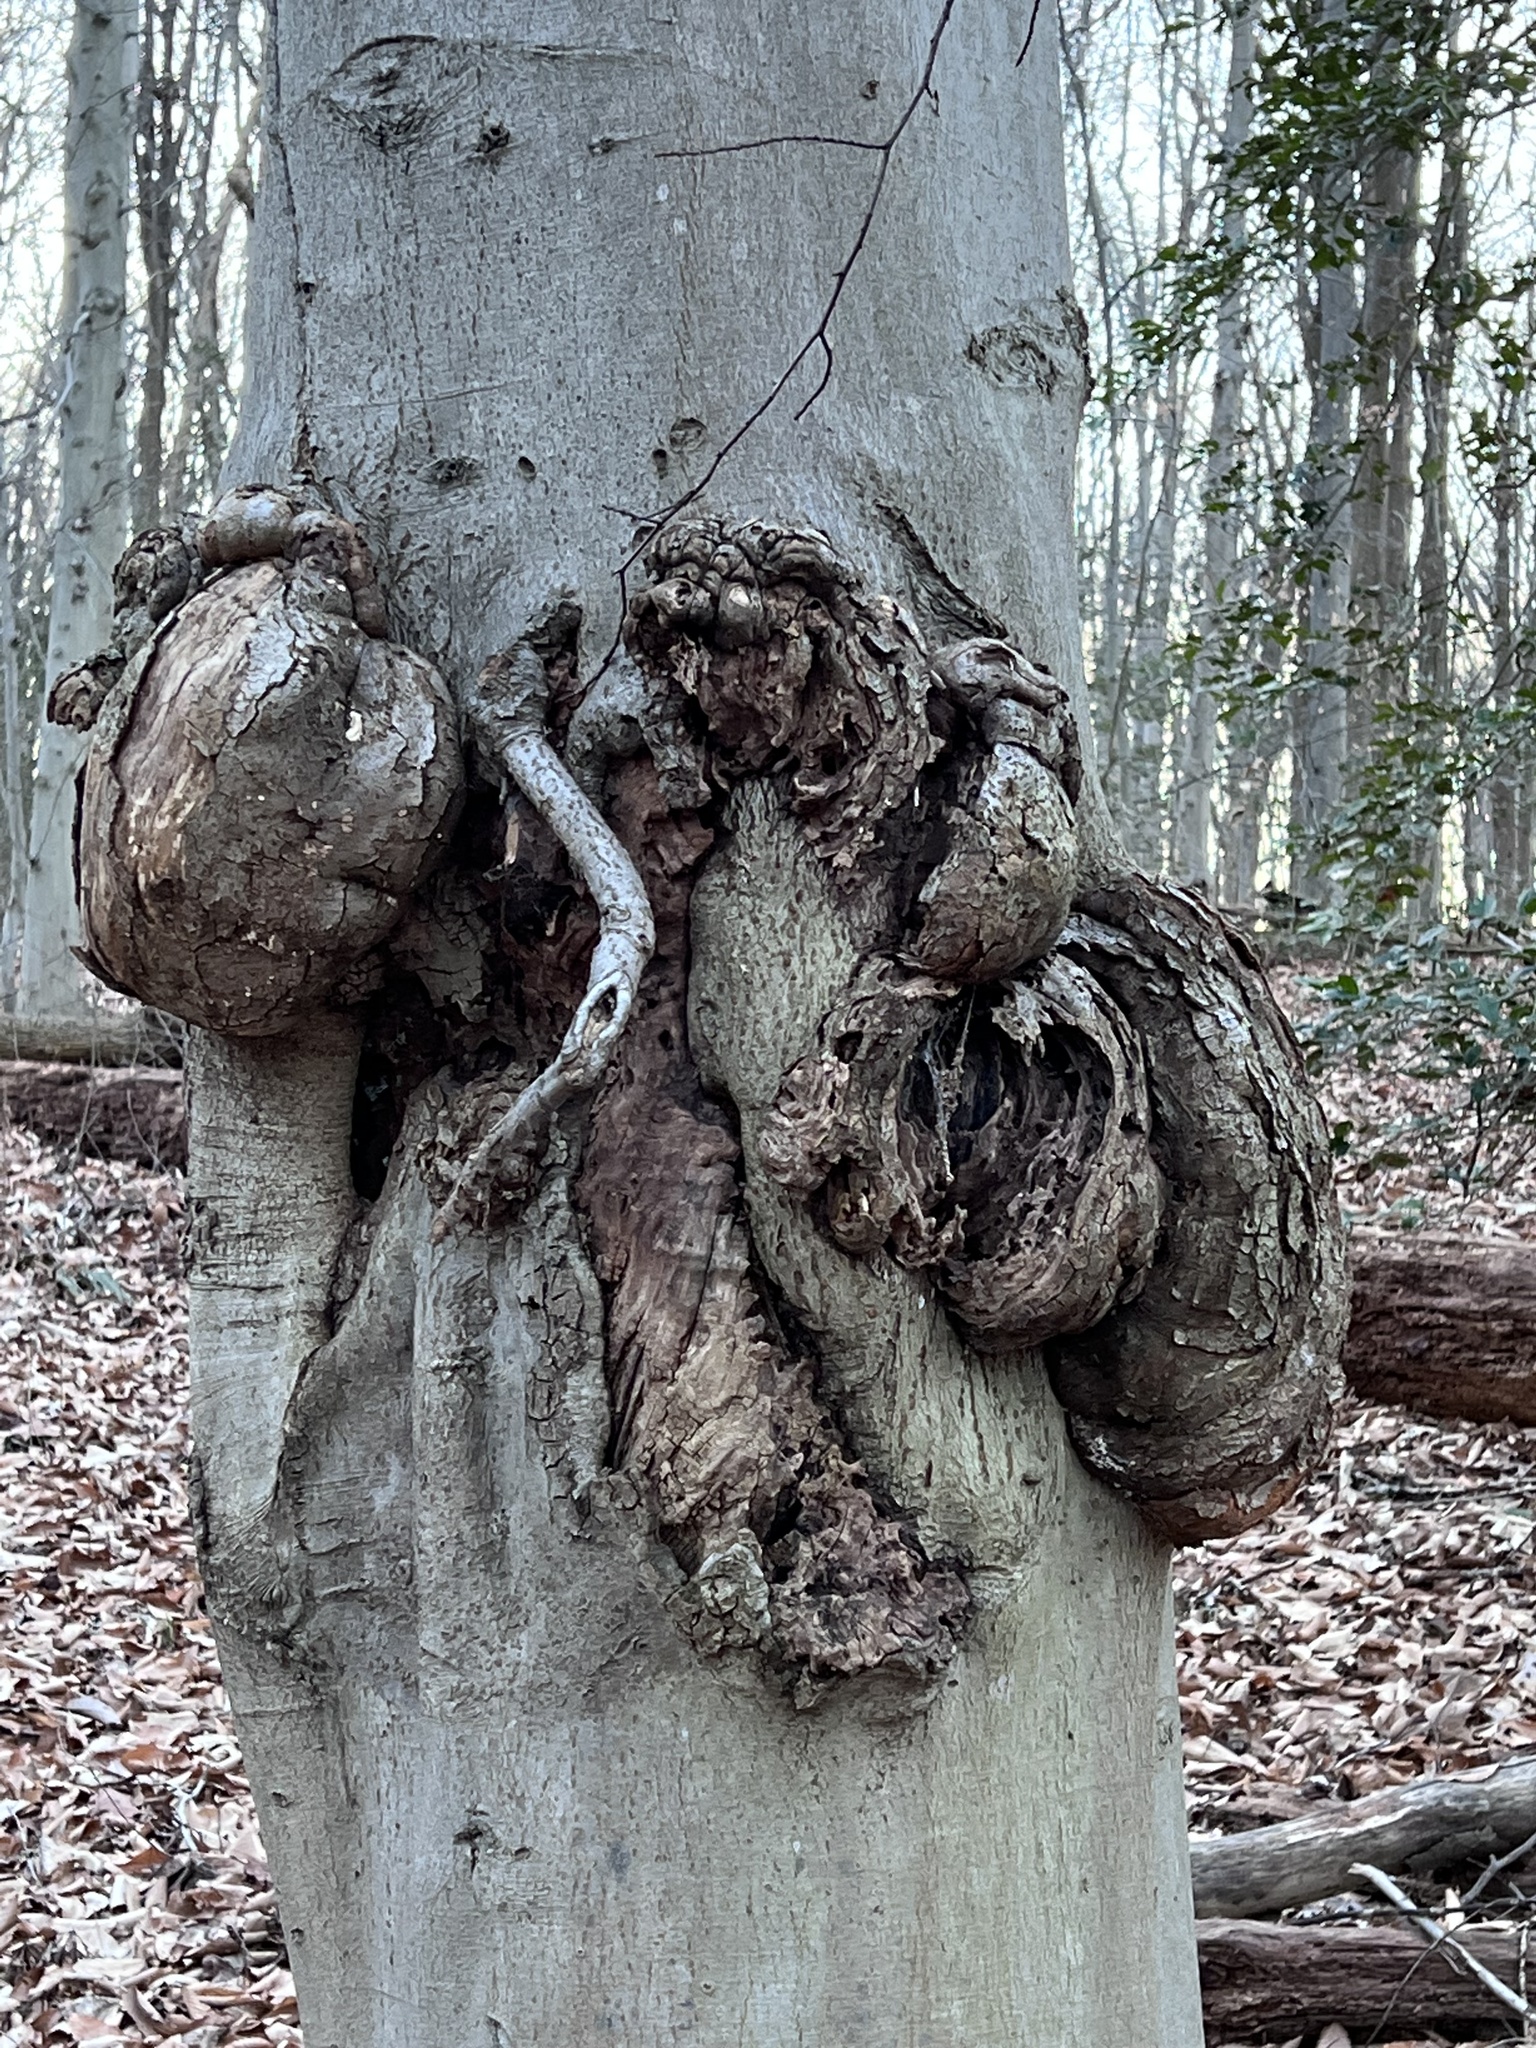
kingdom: Bacteria
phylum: Proteobacteria
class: Alphaproteobacteria
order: Rhizobiales
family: Rhizobiaceae
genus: Rhizobium
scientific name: Rhizobium Agrobacterium radiobacter
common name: Bacterial crown gall
